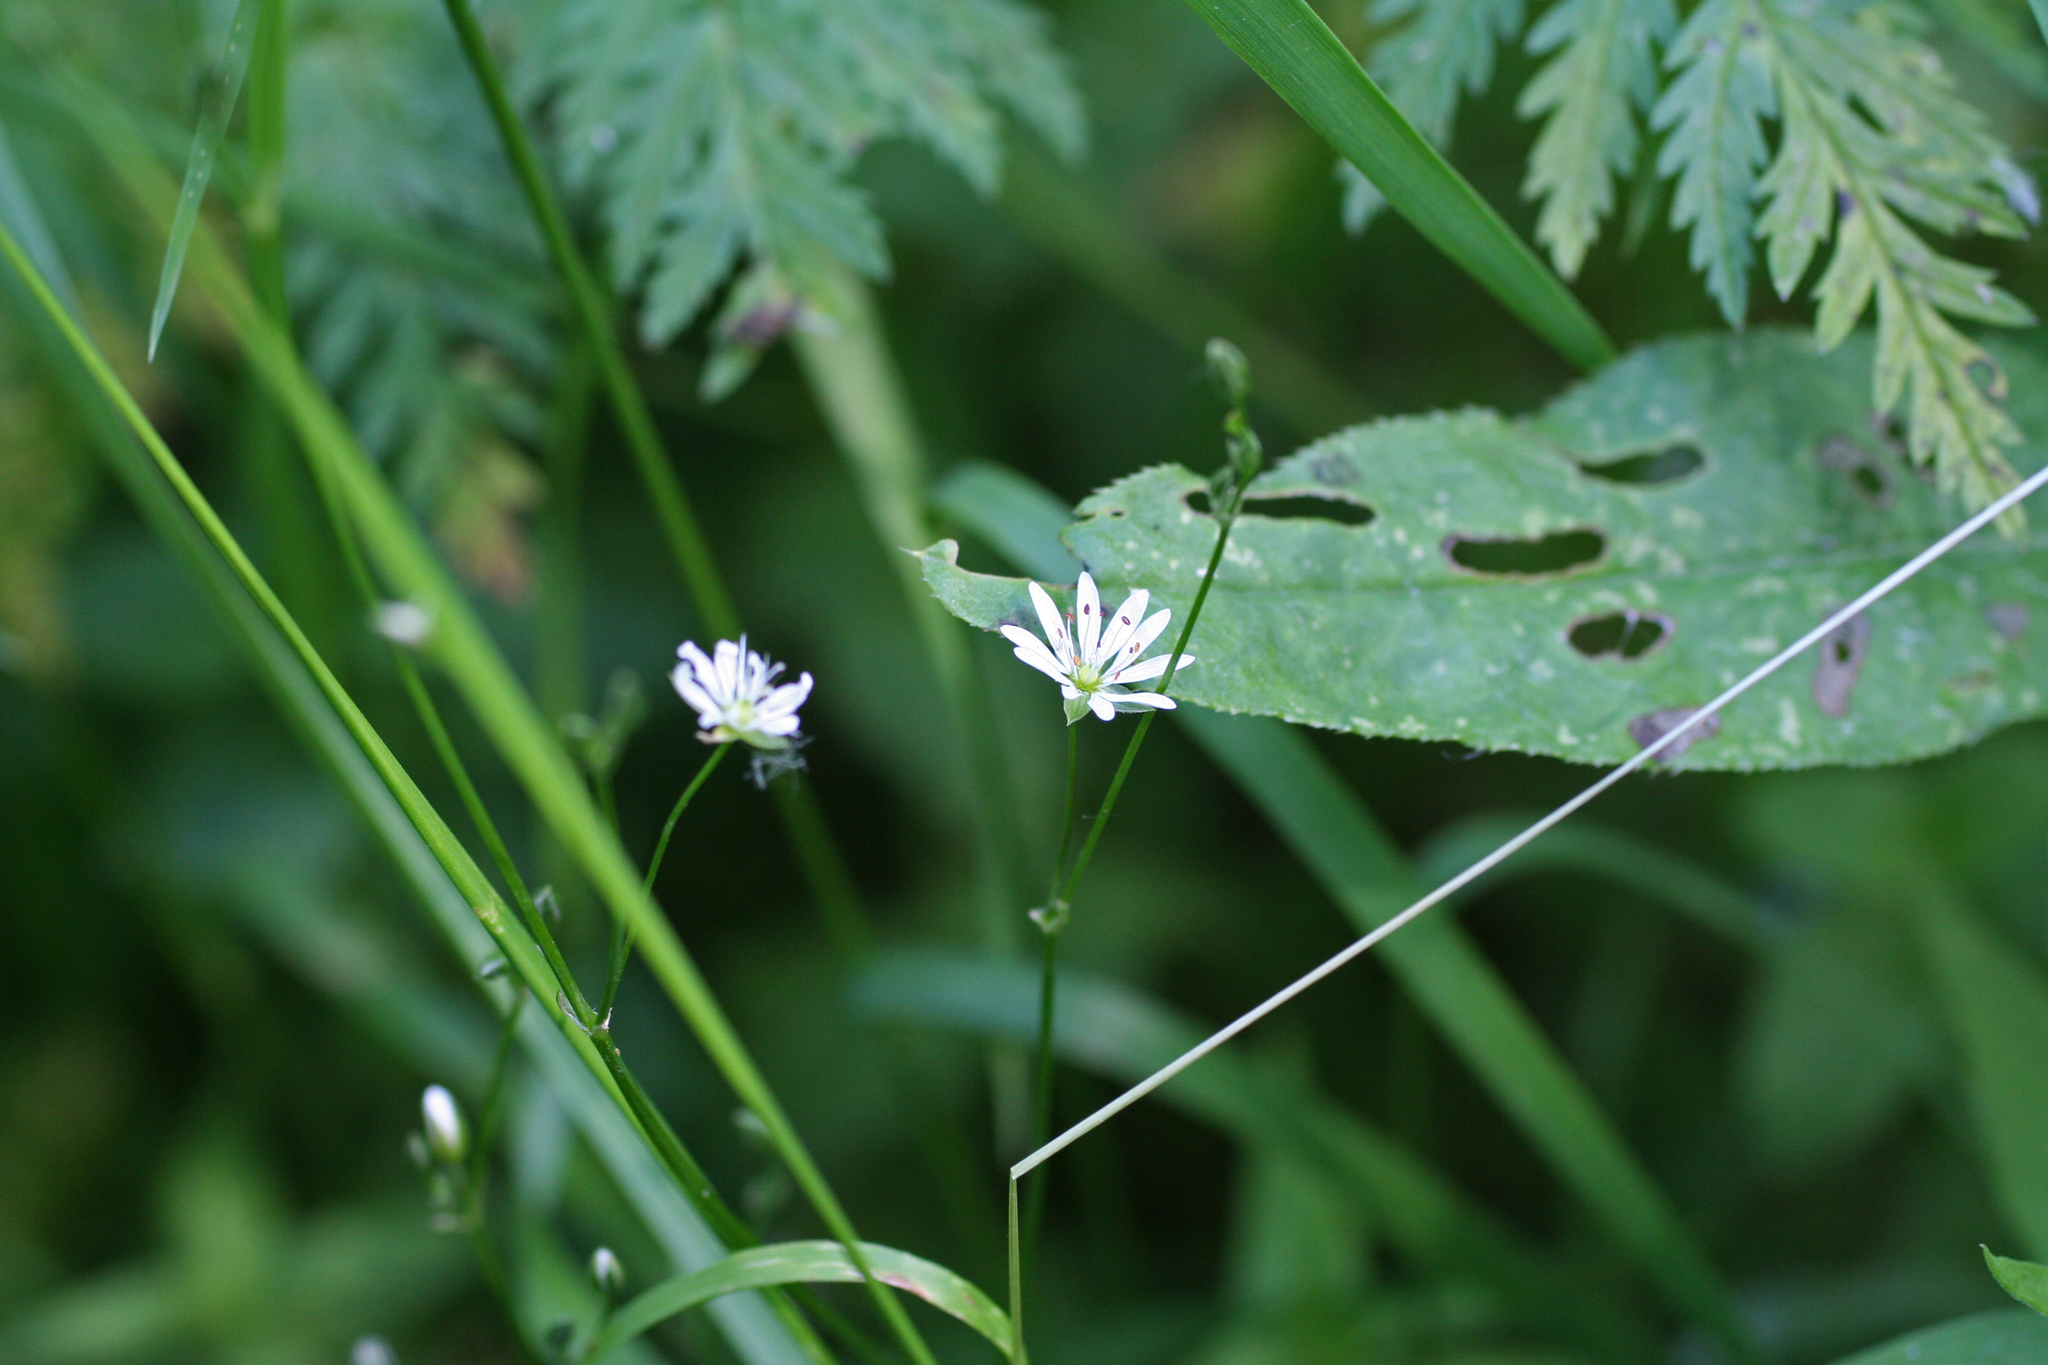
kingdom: Plantae
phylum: Tracheophyta
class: Magnoliopsida
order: Caryophyllales
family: Caryophyllaceae
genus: Stellaria
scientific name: Stellaria graminea
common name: Grass-like starwort
